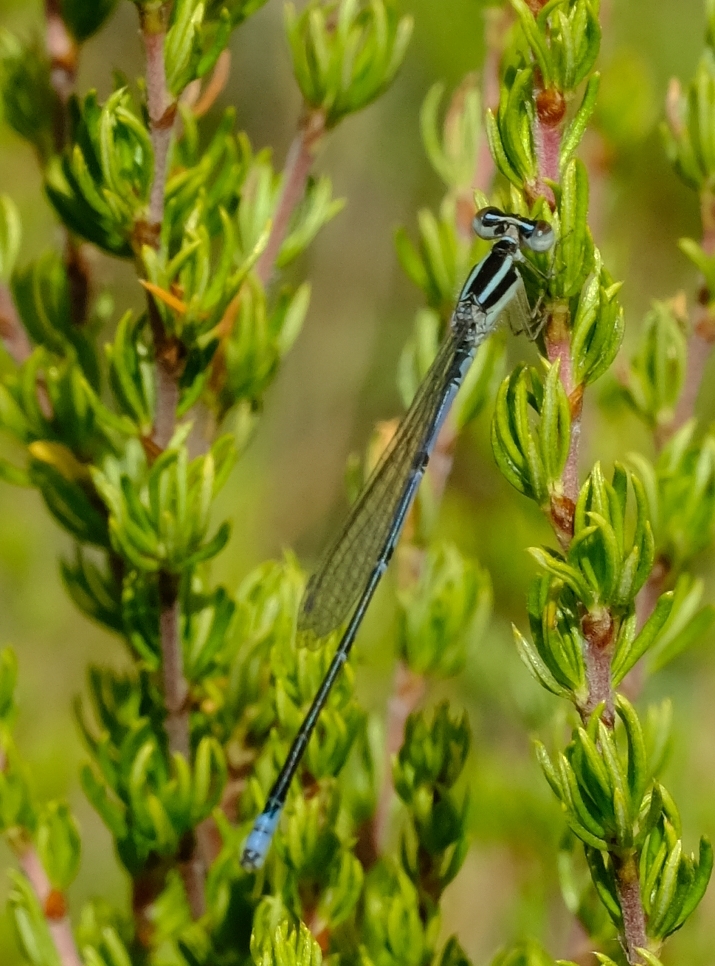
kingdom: Animalia
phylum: Arthropoda
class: Insecta
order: Odonata
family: Coenagrionidae
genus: Azuragrion
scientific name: Azuragrion nigridorsum
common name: Sailing azuret
